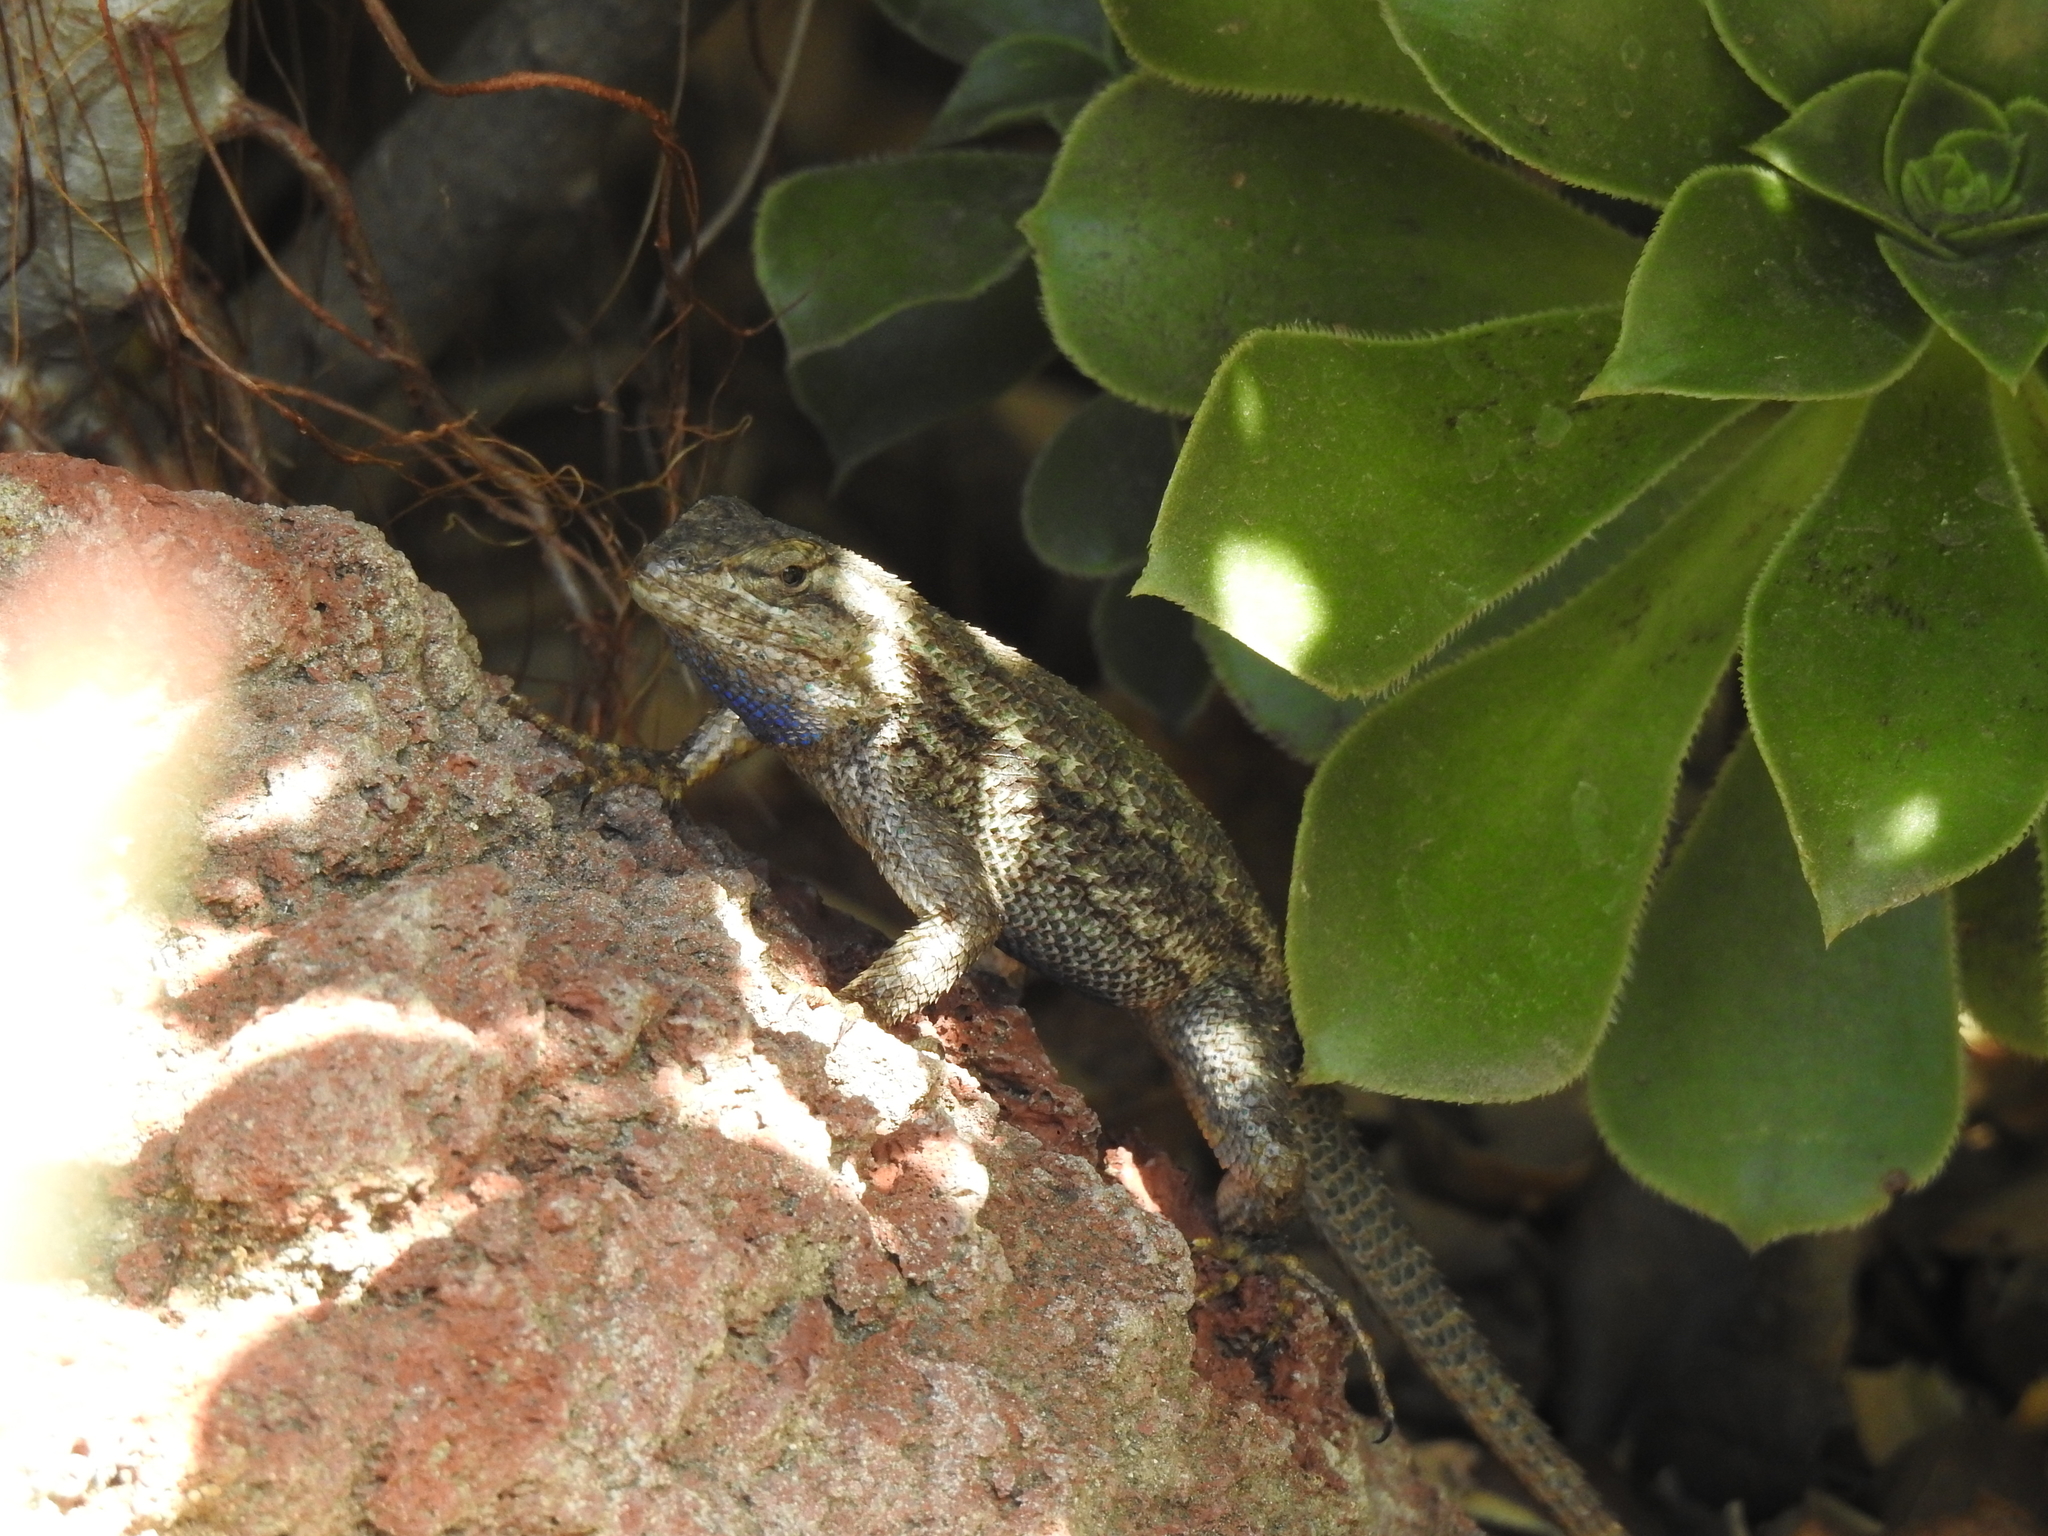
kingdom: Animalia
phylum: Chordata
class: Squamata
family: Phrynosomatidae
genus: Sceloporus
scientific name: Sceloporus occidentalis
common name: Western fence lizard
